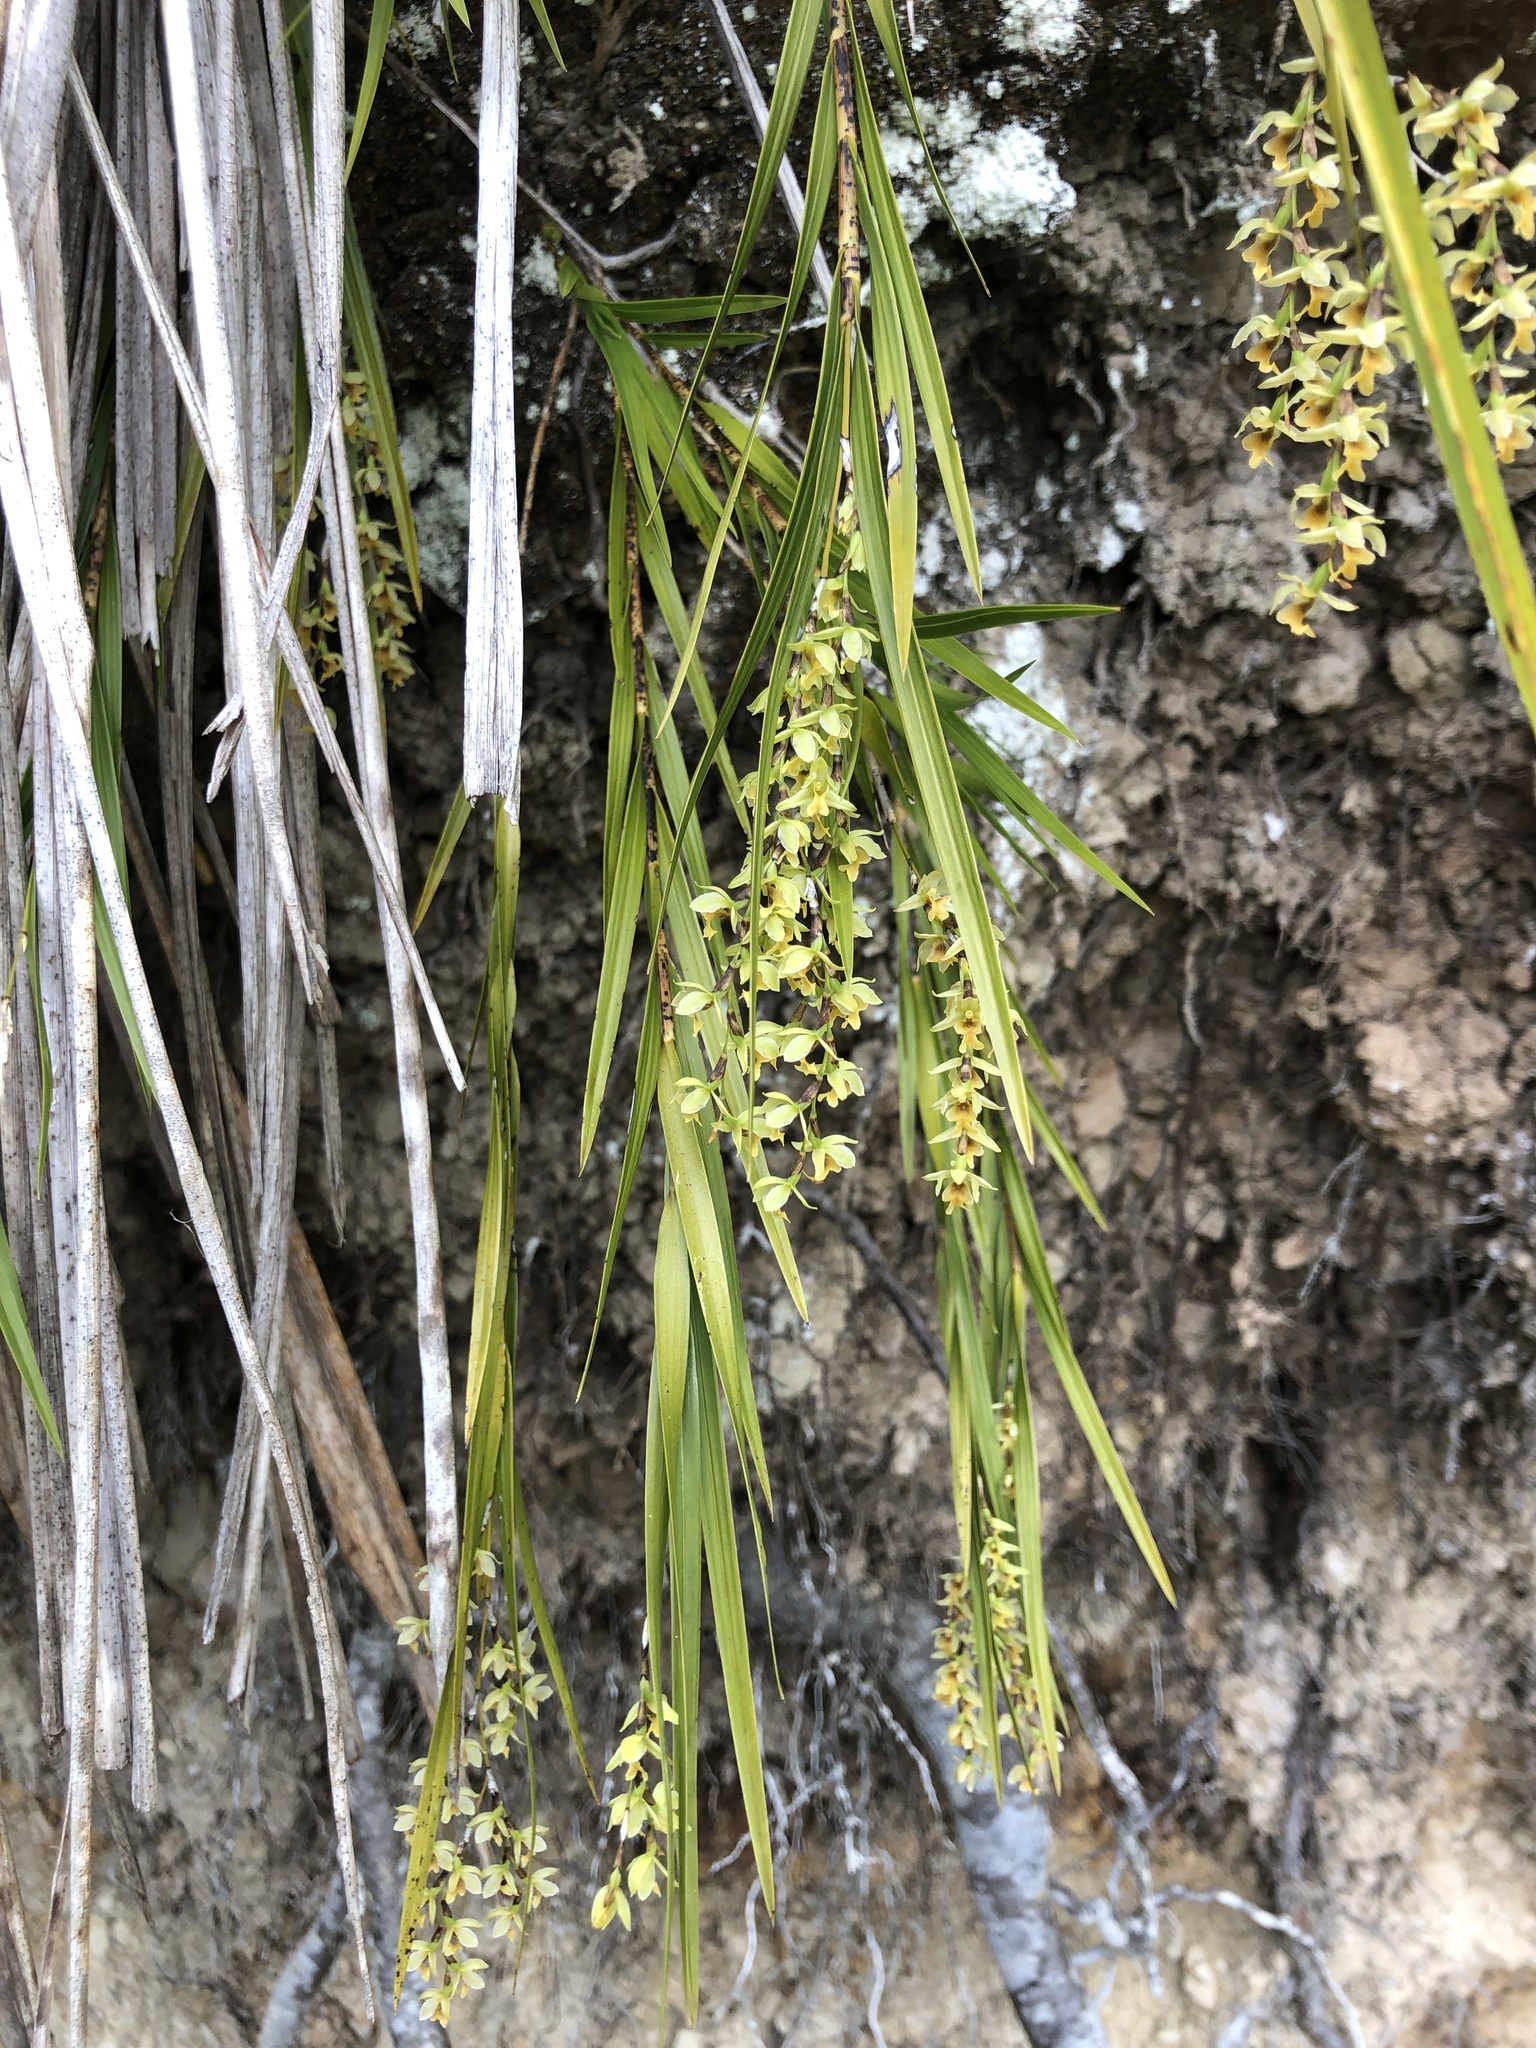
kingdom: Plantae
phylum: Tracheophyta
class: Liliopsida
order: Asparagales
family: Orchidaceae
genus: Earina
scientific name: Earina mucronata
